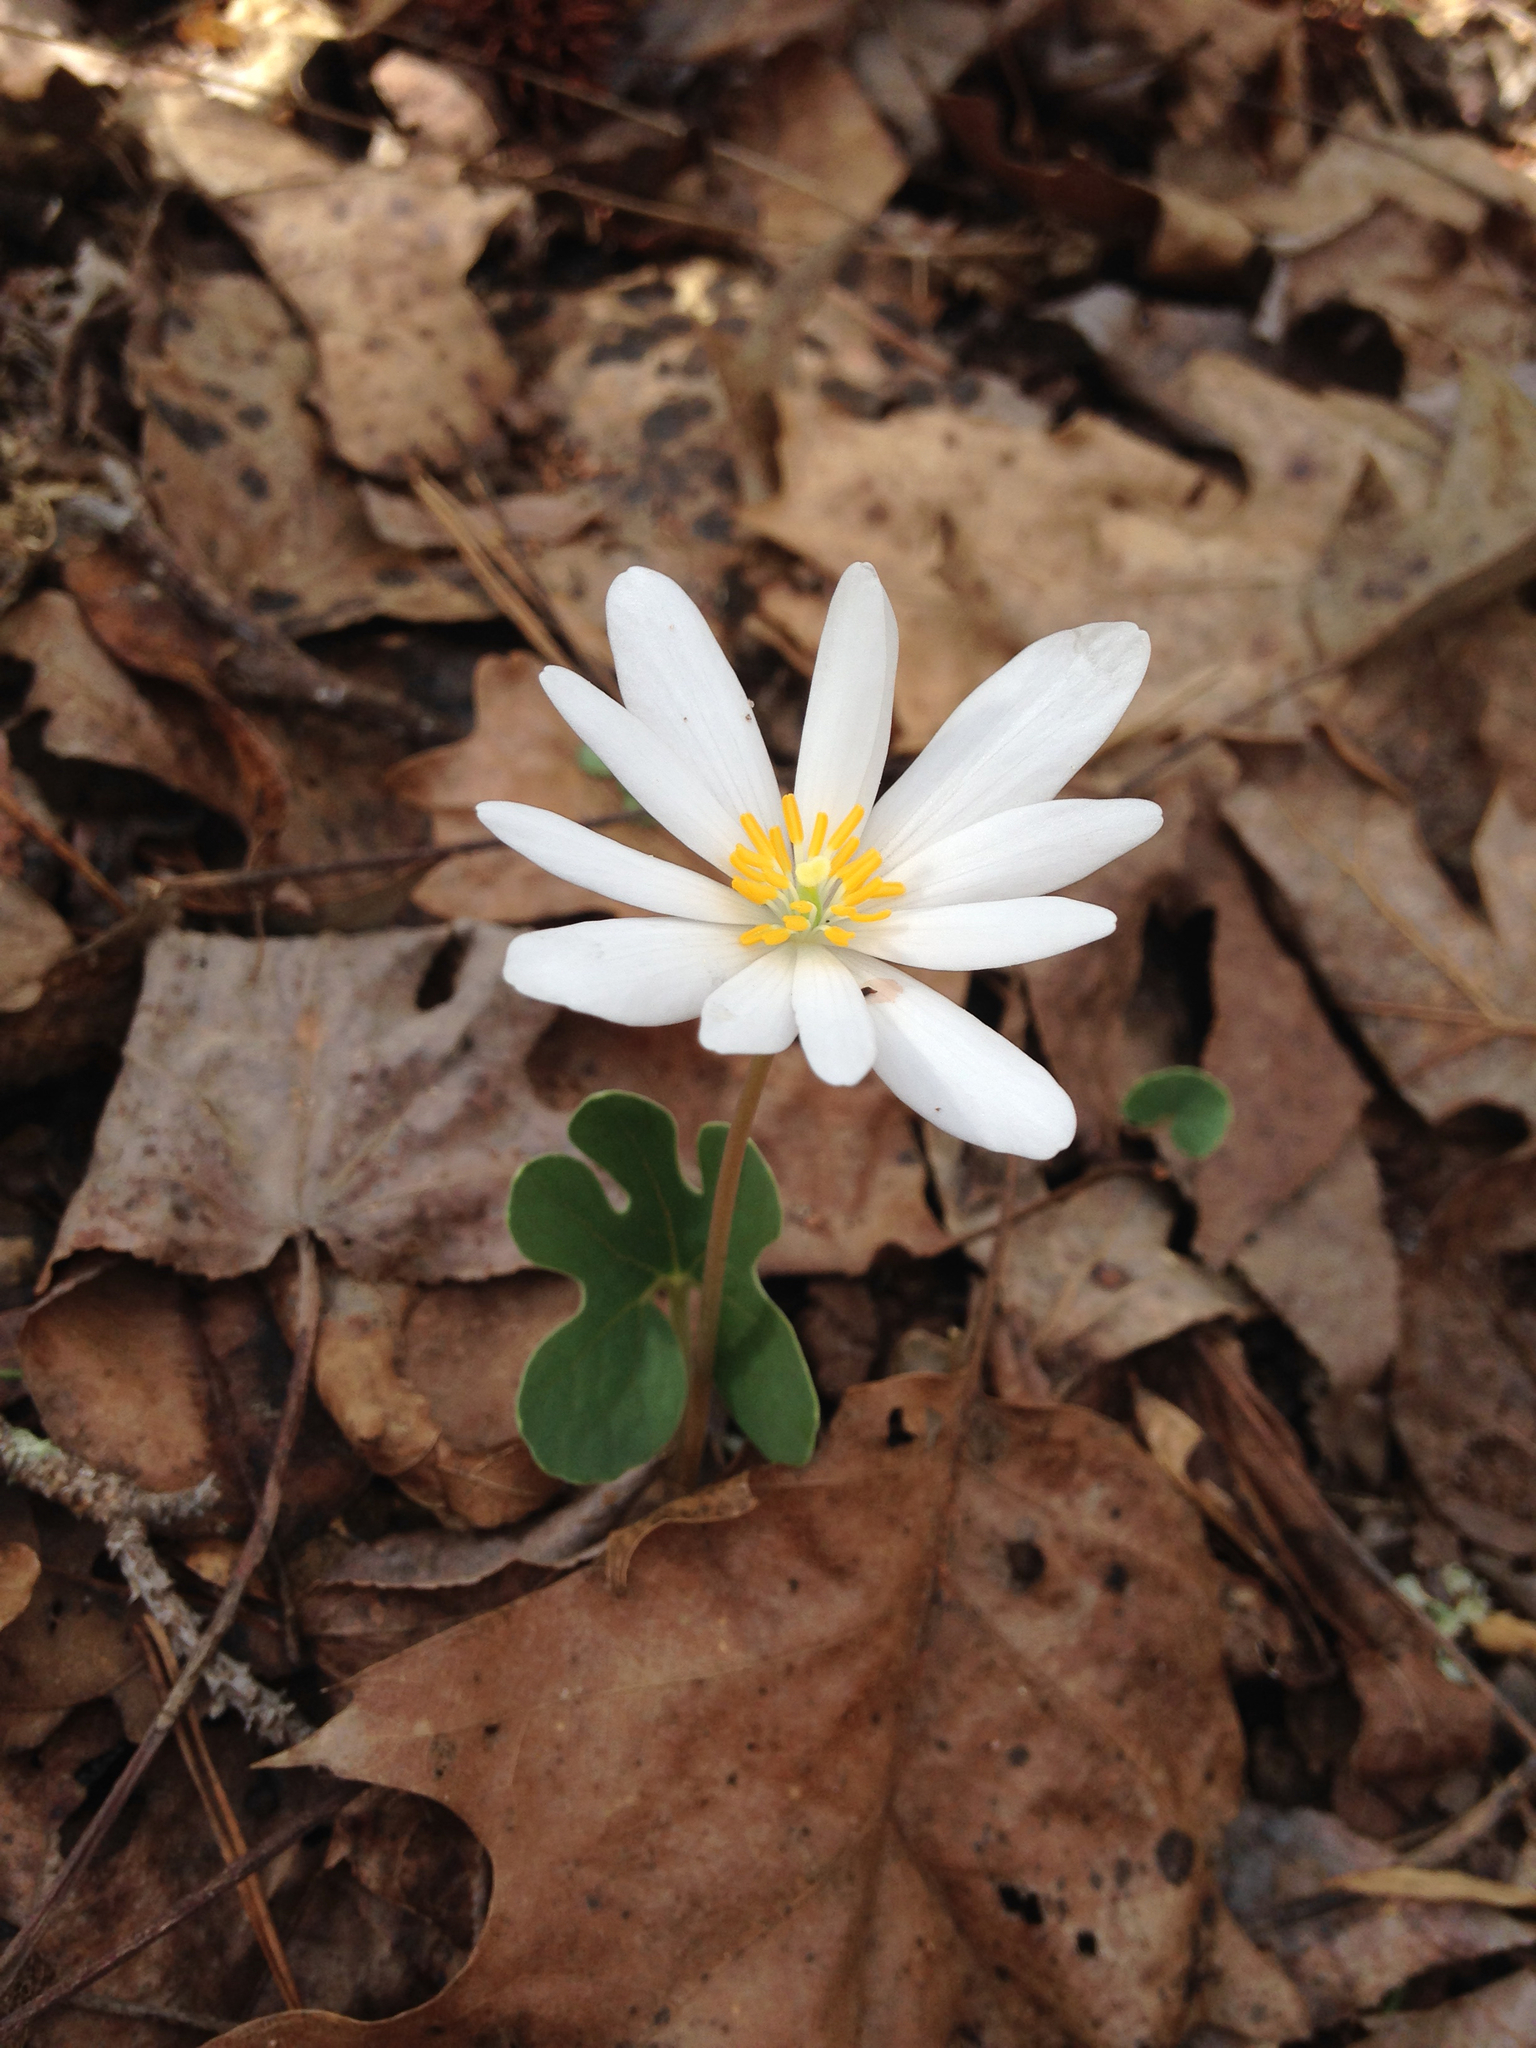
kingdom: Plantae
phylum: Tracheophyta
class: Magnoliopsida
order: Ranunculales
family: Papaveraceae
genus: Sanguinaria
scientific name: Sanguinaria canadensis
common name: Bloodroot
